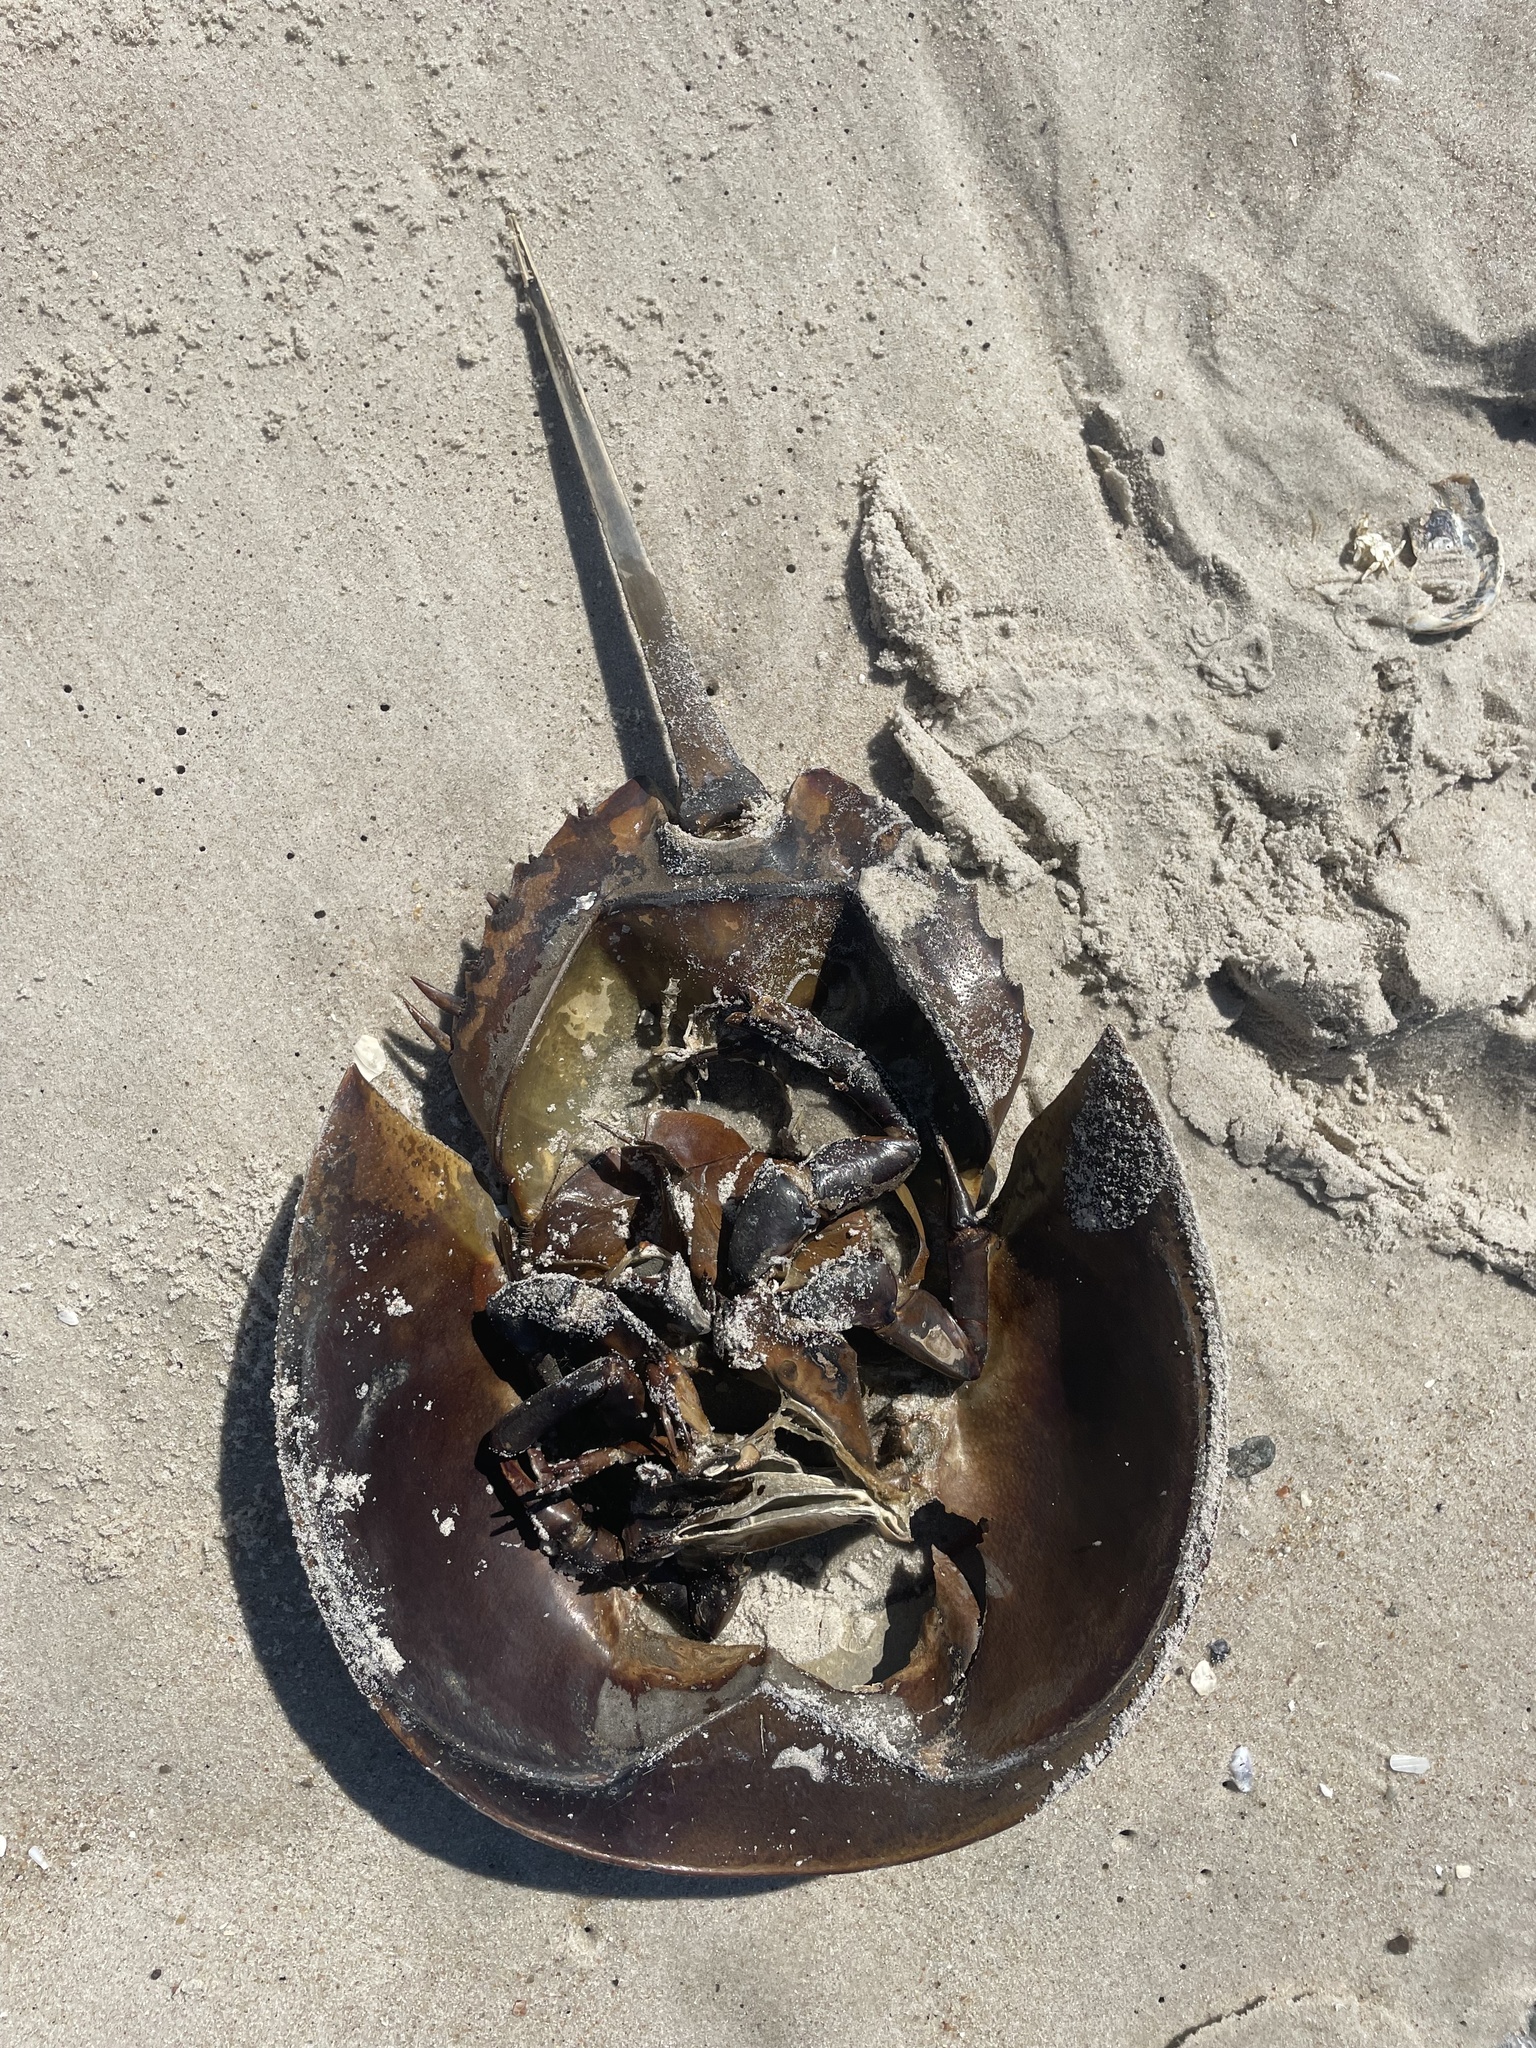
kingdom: Animalia
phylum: Arthropoda
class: Merostomata
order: Xiphosurida
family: Limulidae
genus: Limulus
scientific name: Limulus polyphemus
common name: Horseshoe crab
